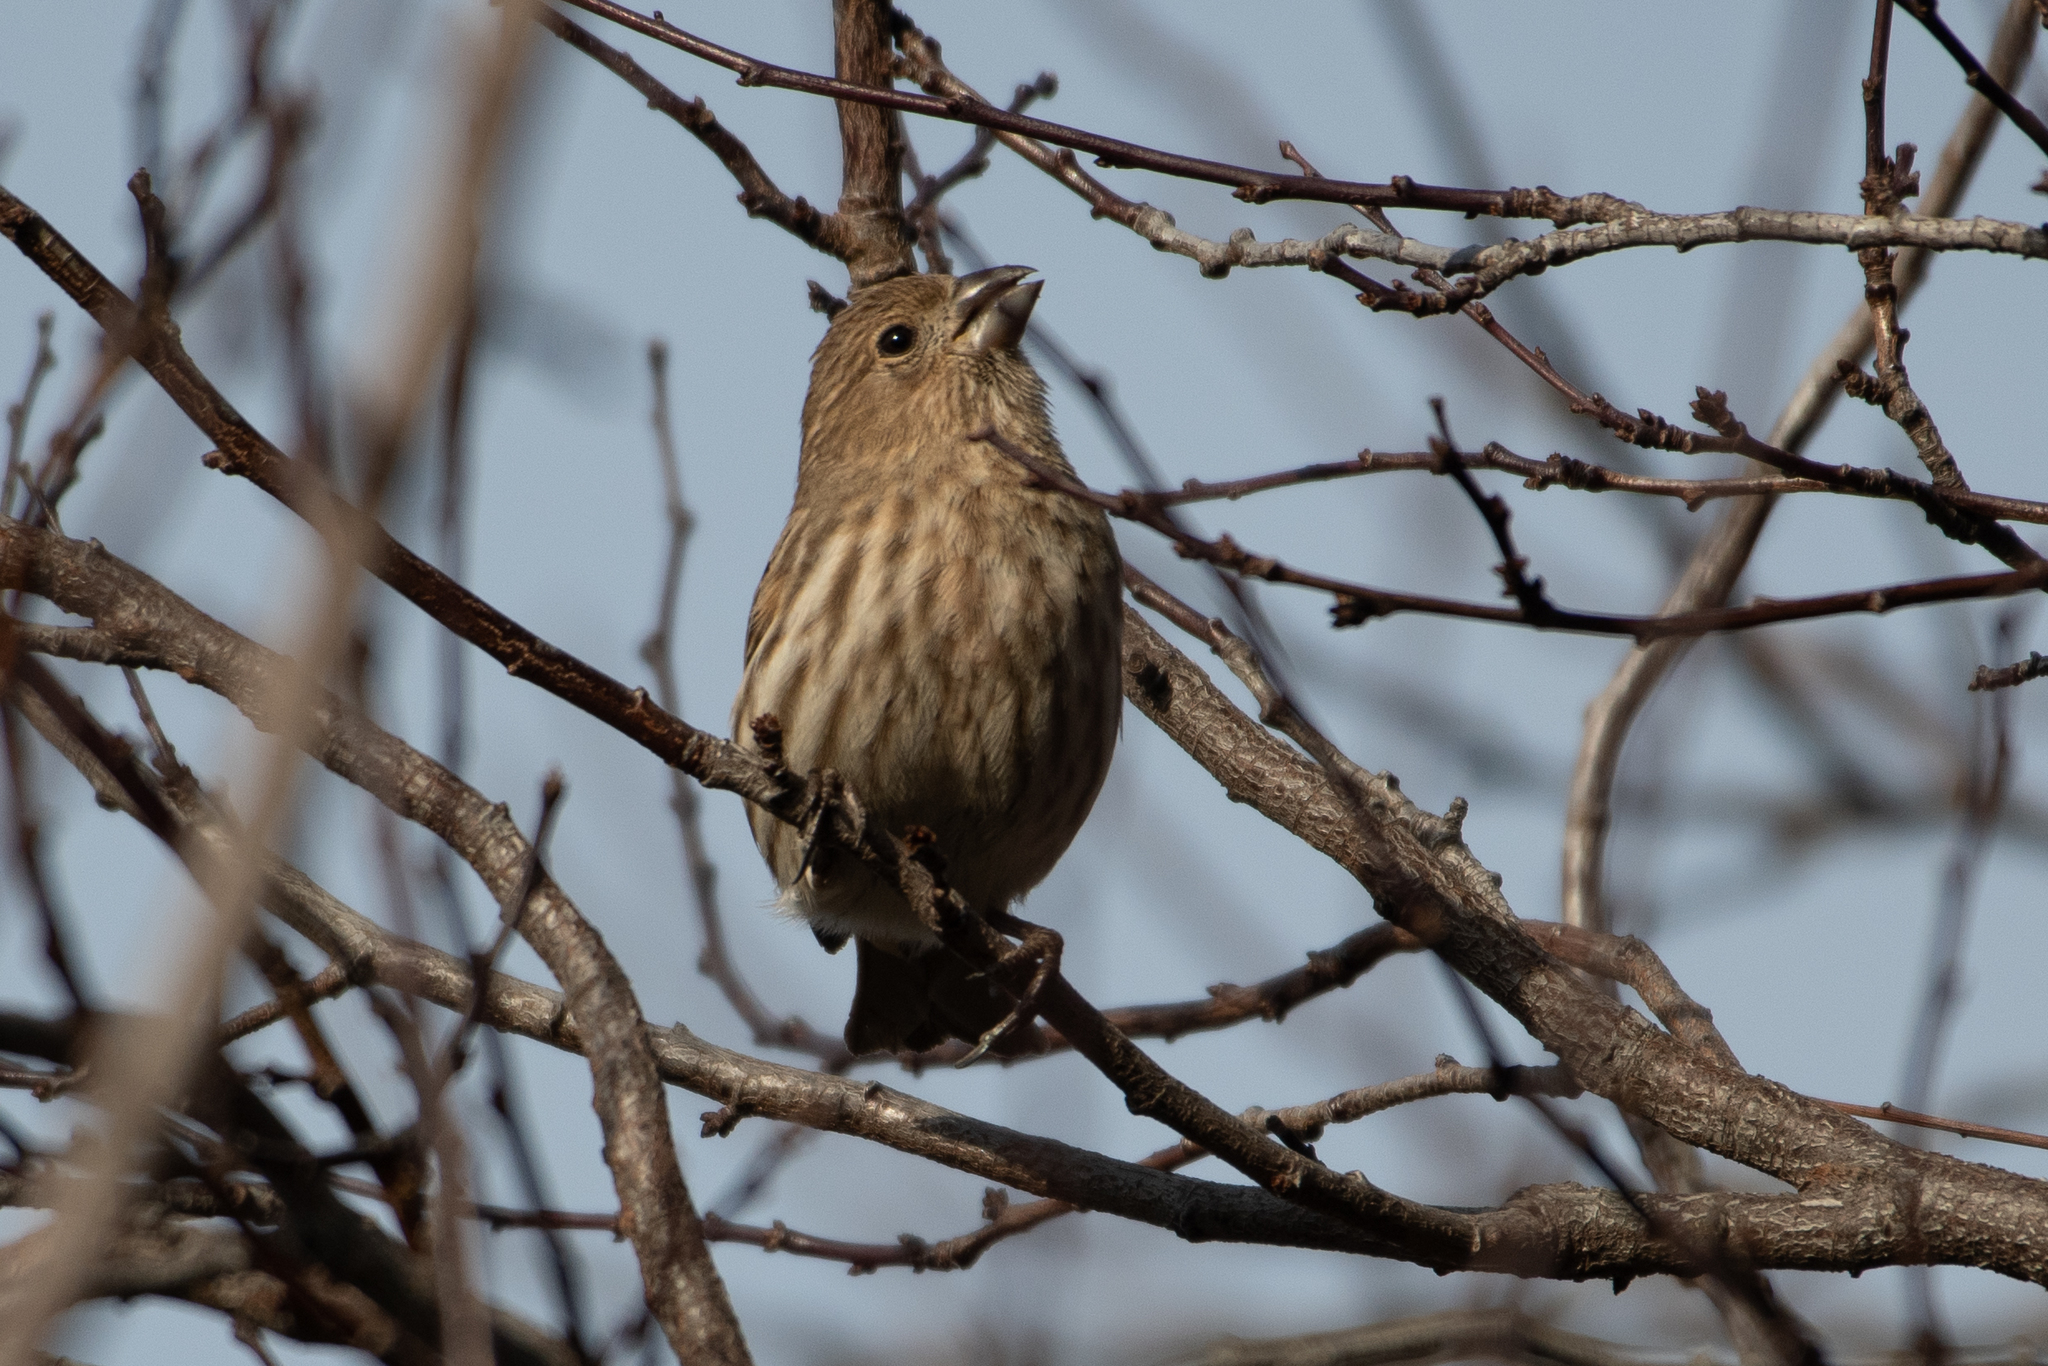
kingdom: Animalia
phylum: Chordata
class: Aves
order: Passeriformes
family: Fringillidae
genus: Haemorhous
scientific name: Haemorhous mexicanus
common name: House finch
